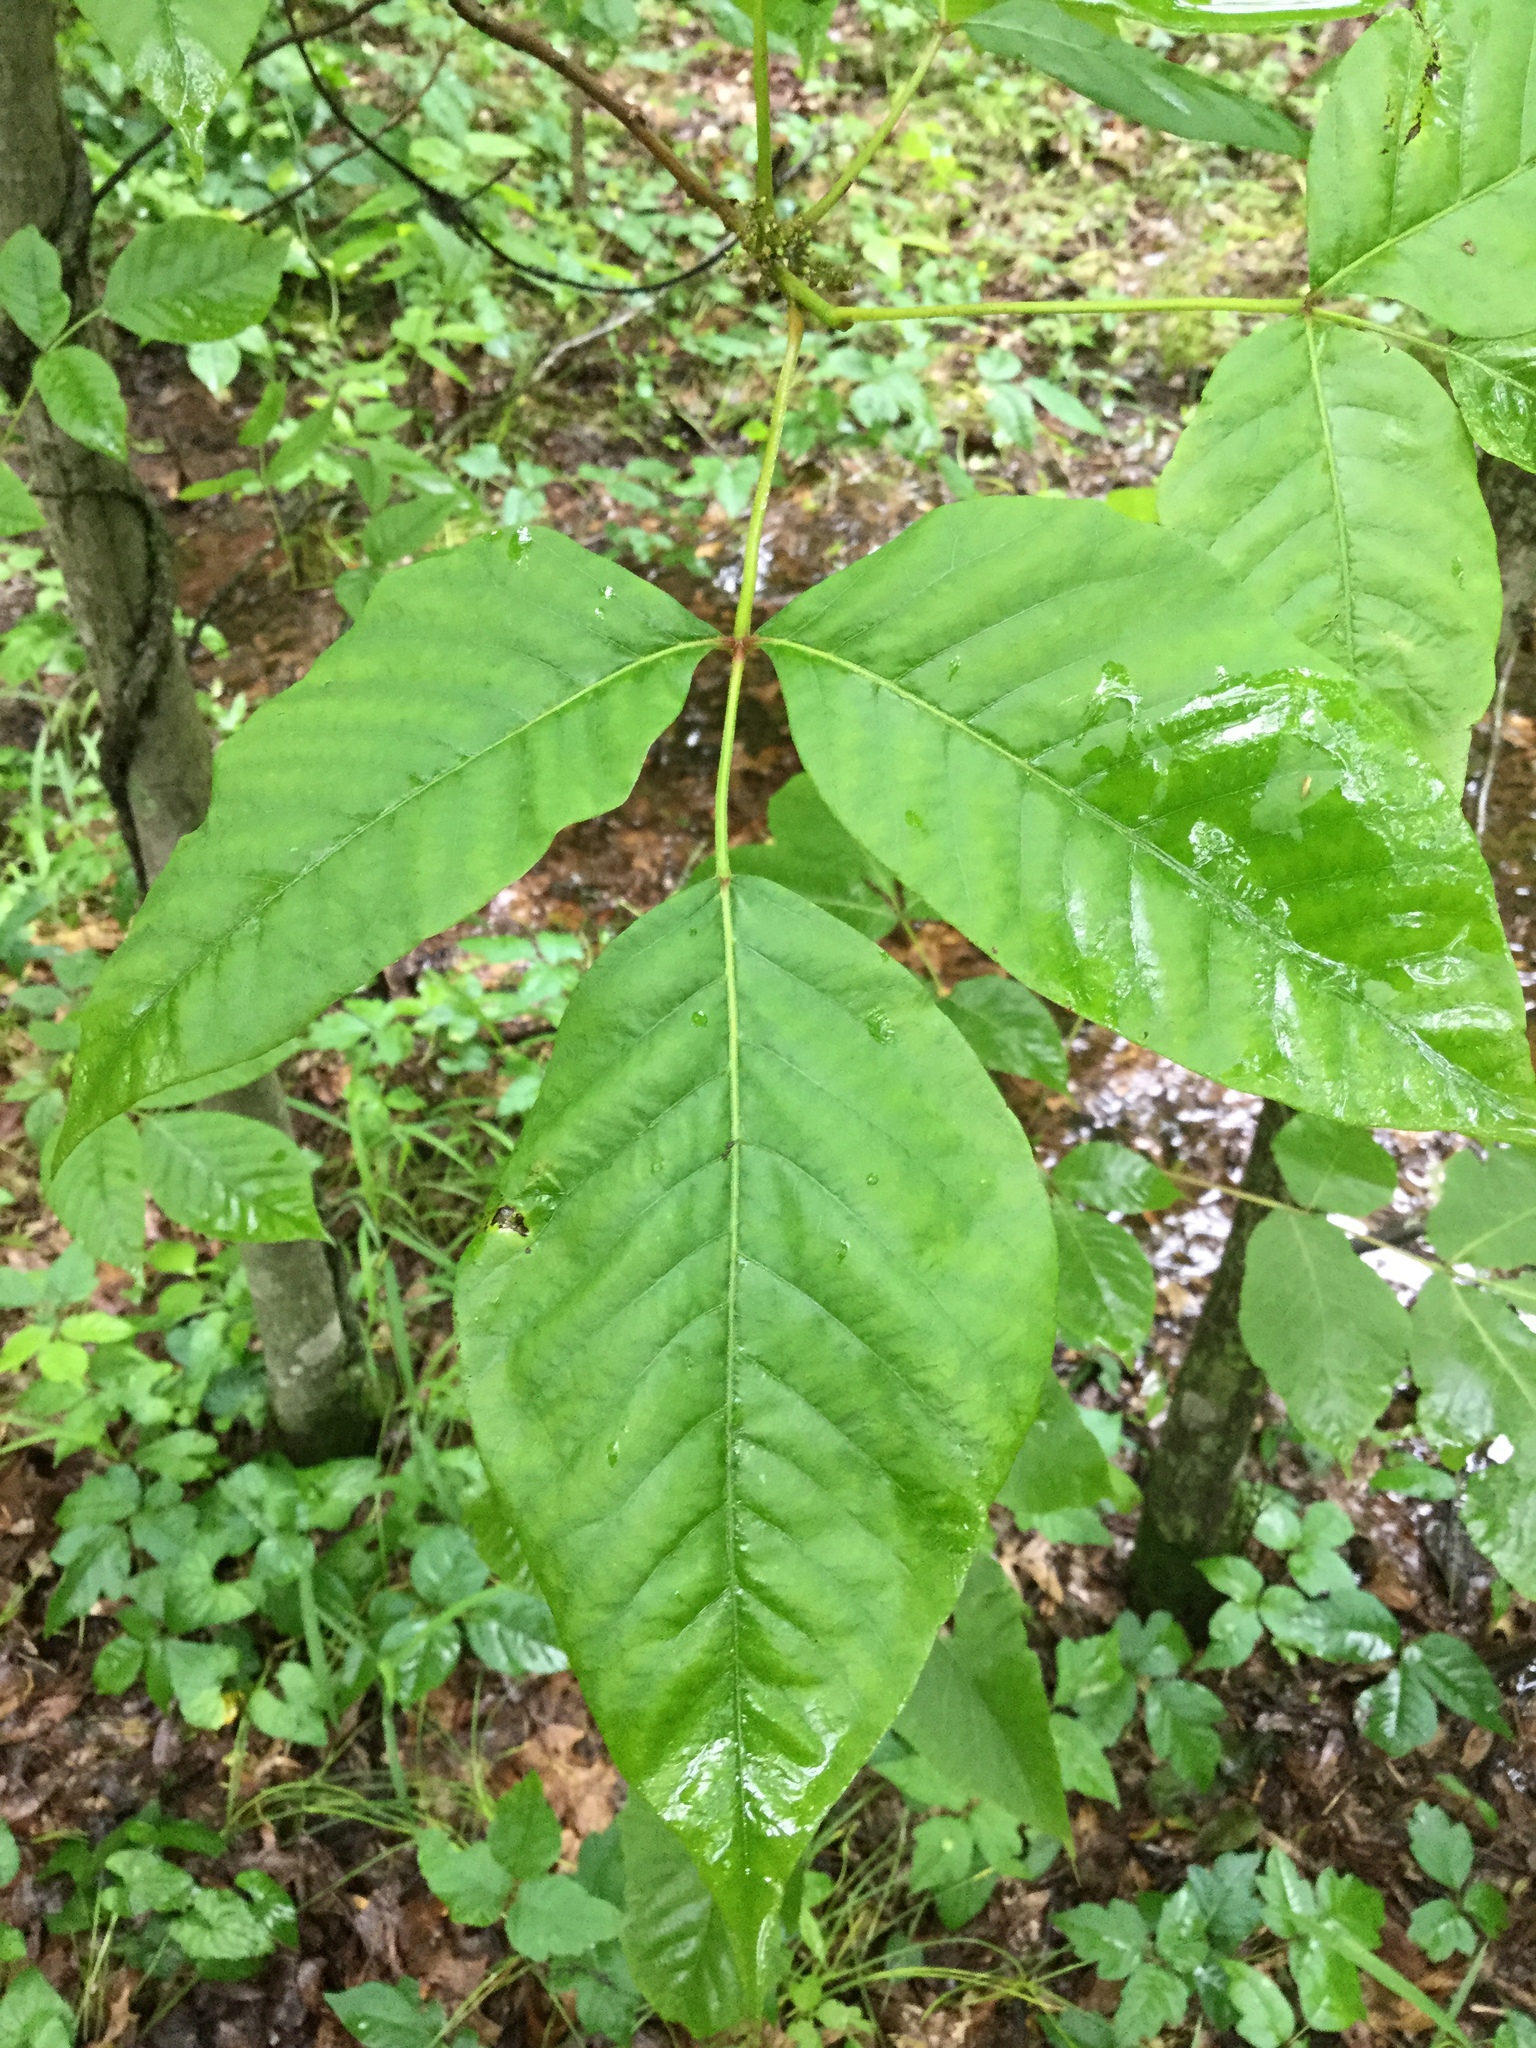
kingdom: Plantae
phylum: Tracheophyta
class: Magnoliopsida
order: Sapindales
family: Anacardiaceae
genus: Toxicodendron
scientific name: Toxicodendron radicans
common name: Poison ivy
